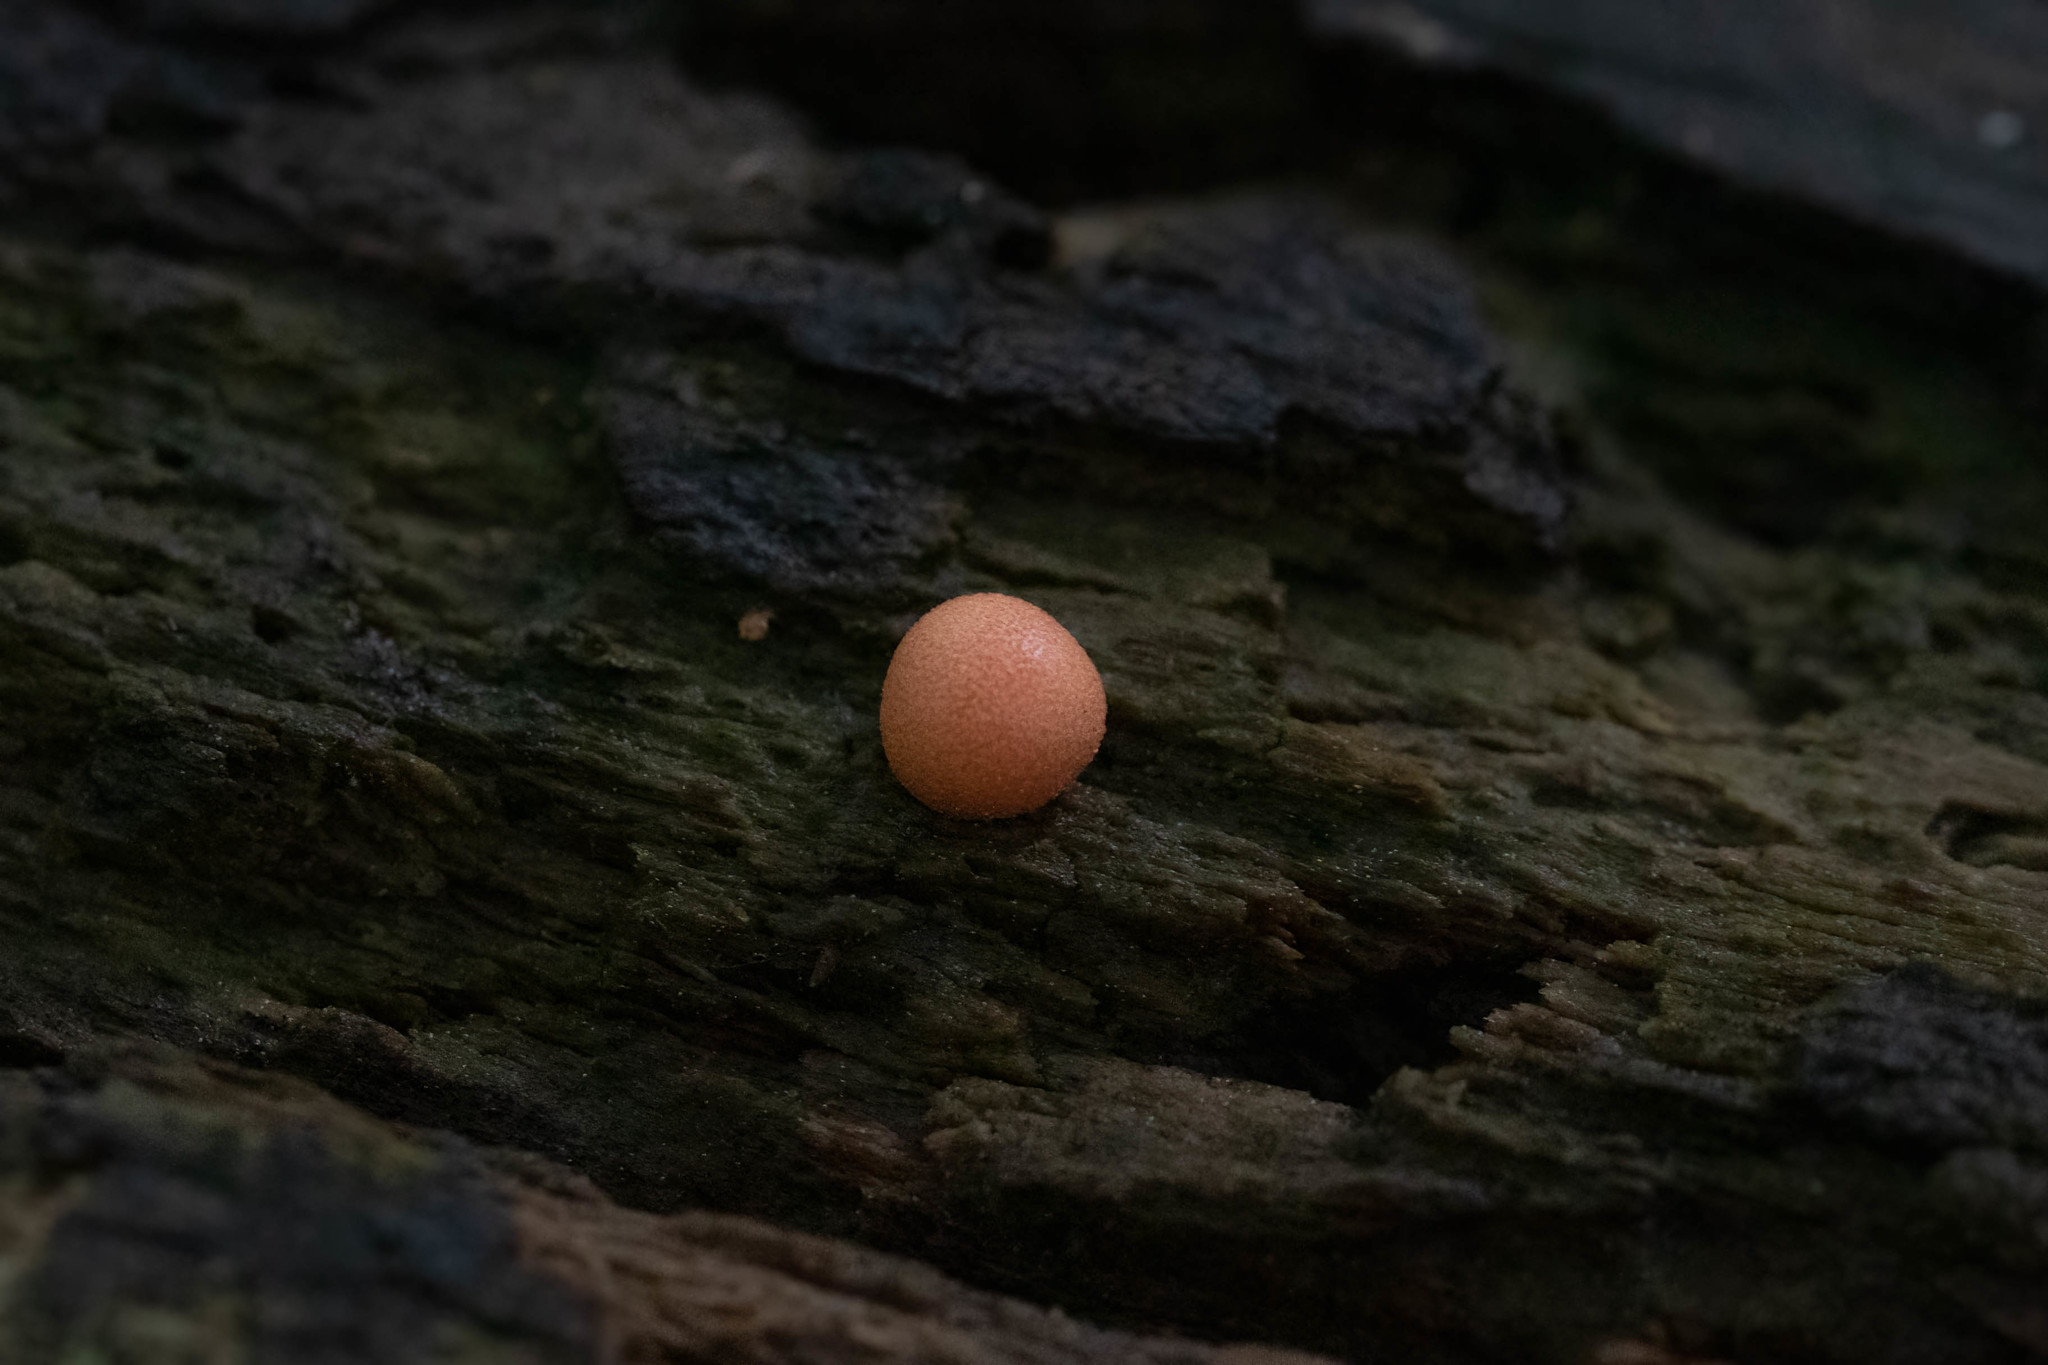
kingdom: Protozoa
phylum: Mycetozoa
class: Myxomycetes
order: Cribrariales
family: Tubiferaceae
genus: Lycogala
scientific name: Lycogala epidendrum
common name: Wolf's milk
